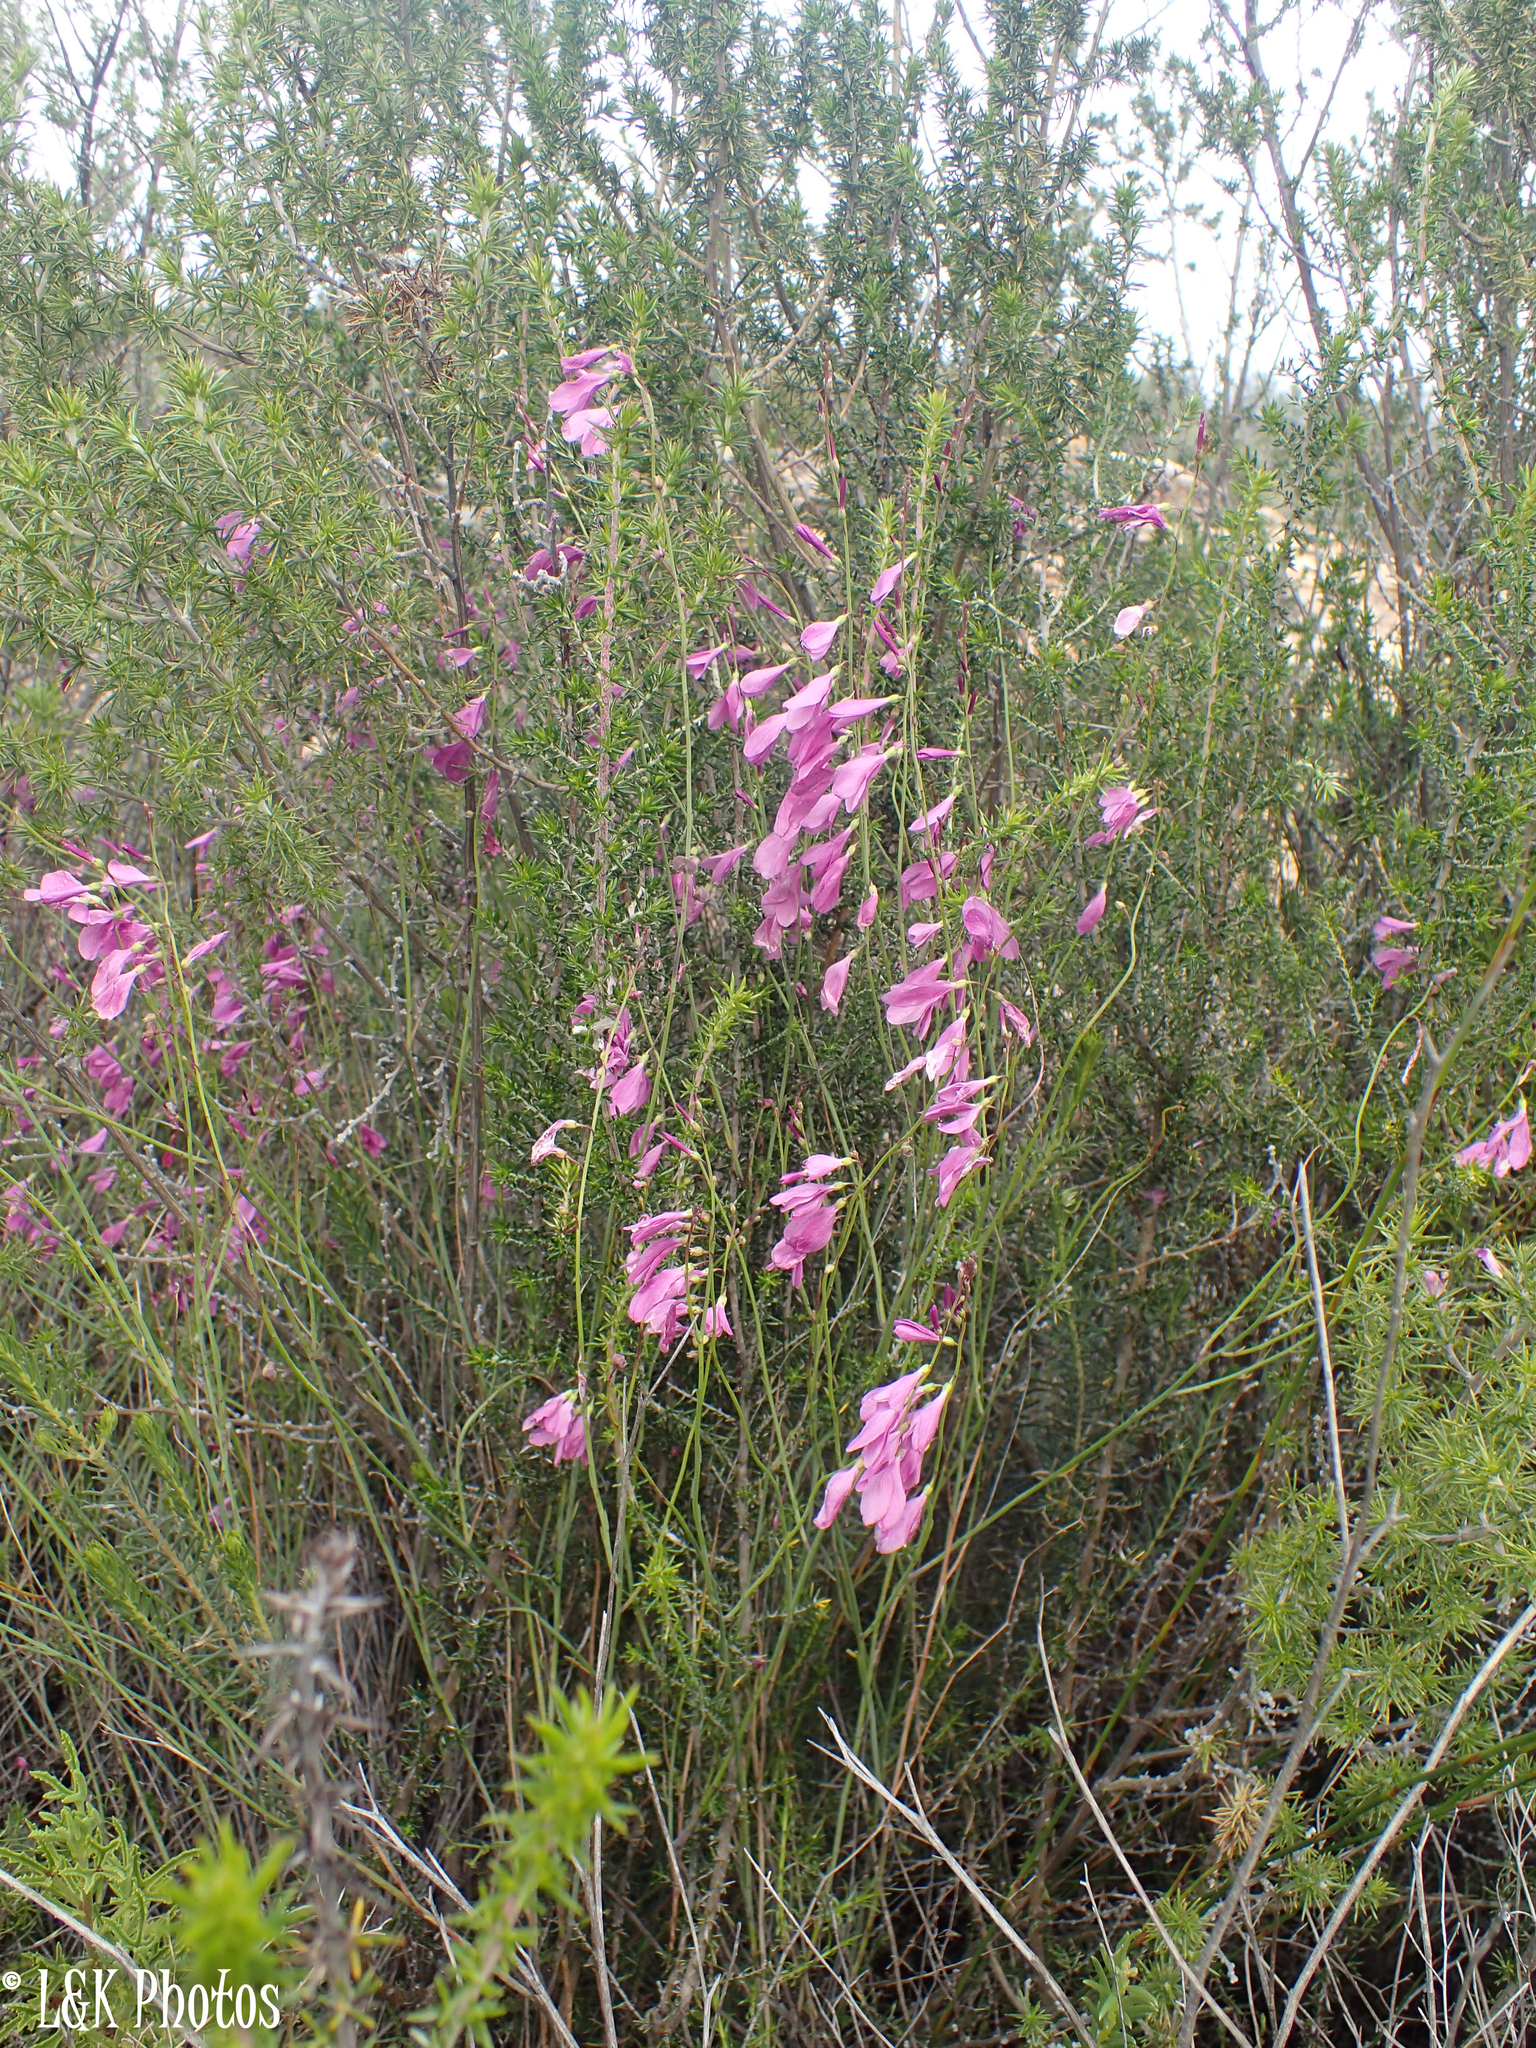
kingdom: Plantae
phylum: Tracheophyta
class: Magnoliopsida
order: Brassicales
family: Brassicaceae
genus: Heliophila
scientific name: Heliophila juncea
